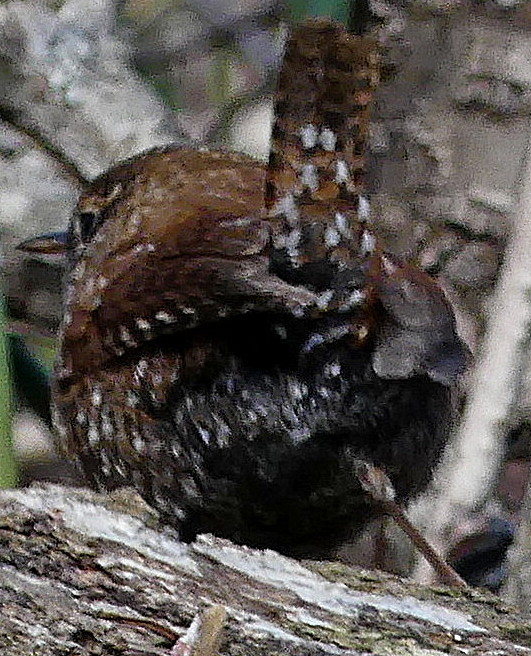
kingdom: Animalia
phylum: Chordata
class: Aves
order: Passeriformes
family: Troglodytidae
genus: Troglodytes
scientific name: Troglodytes hiemalis
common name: Winter wren
